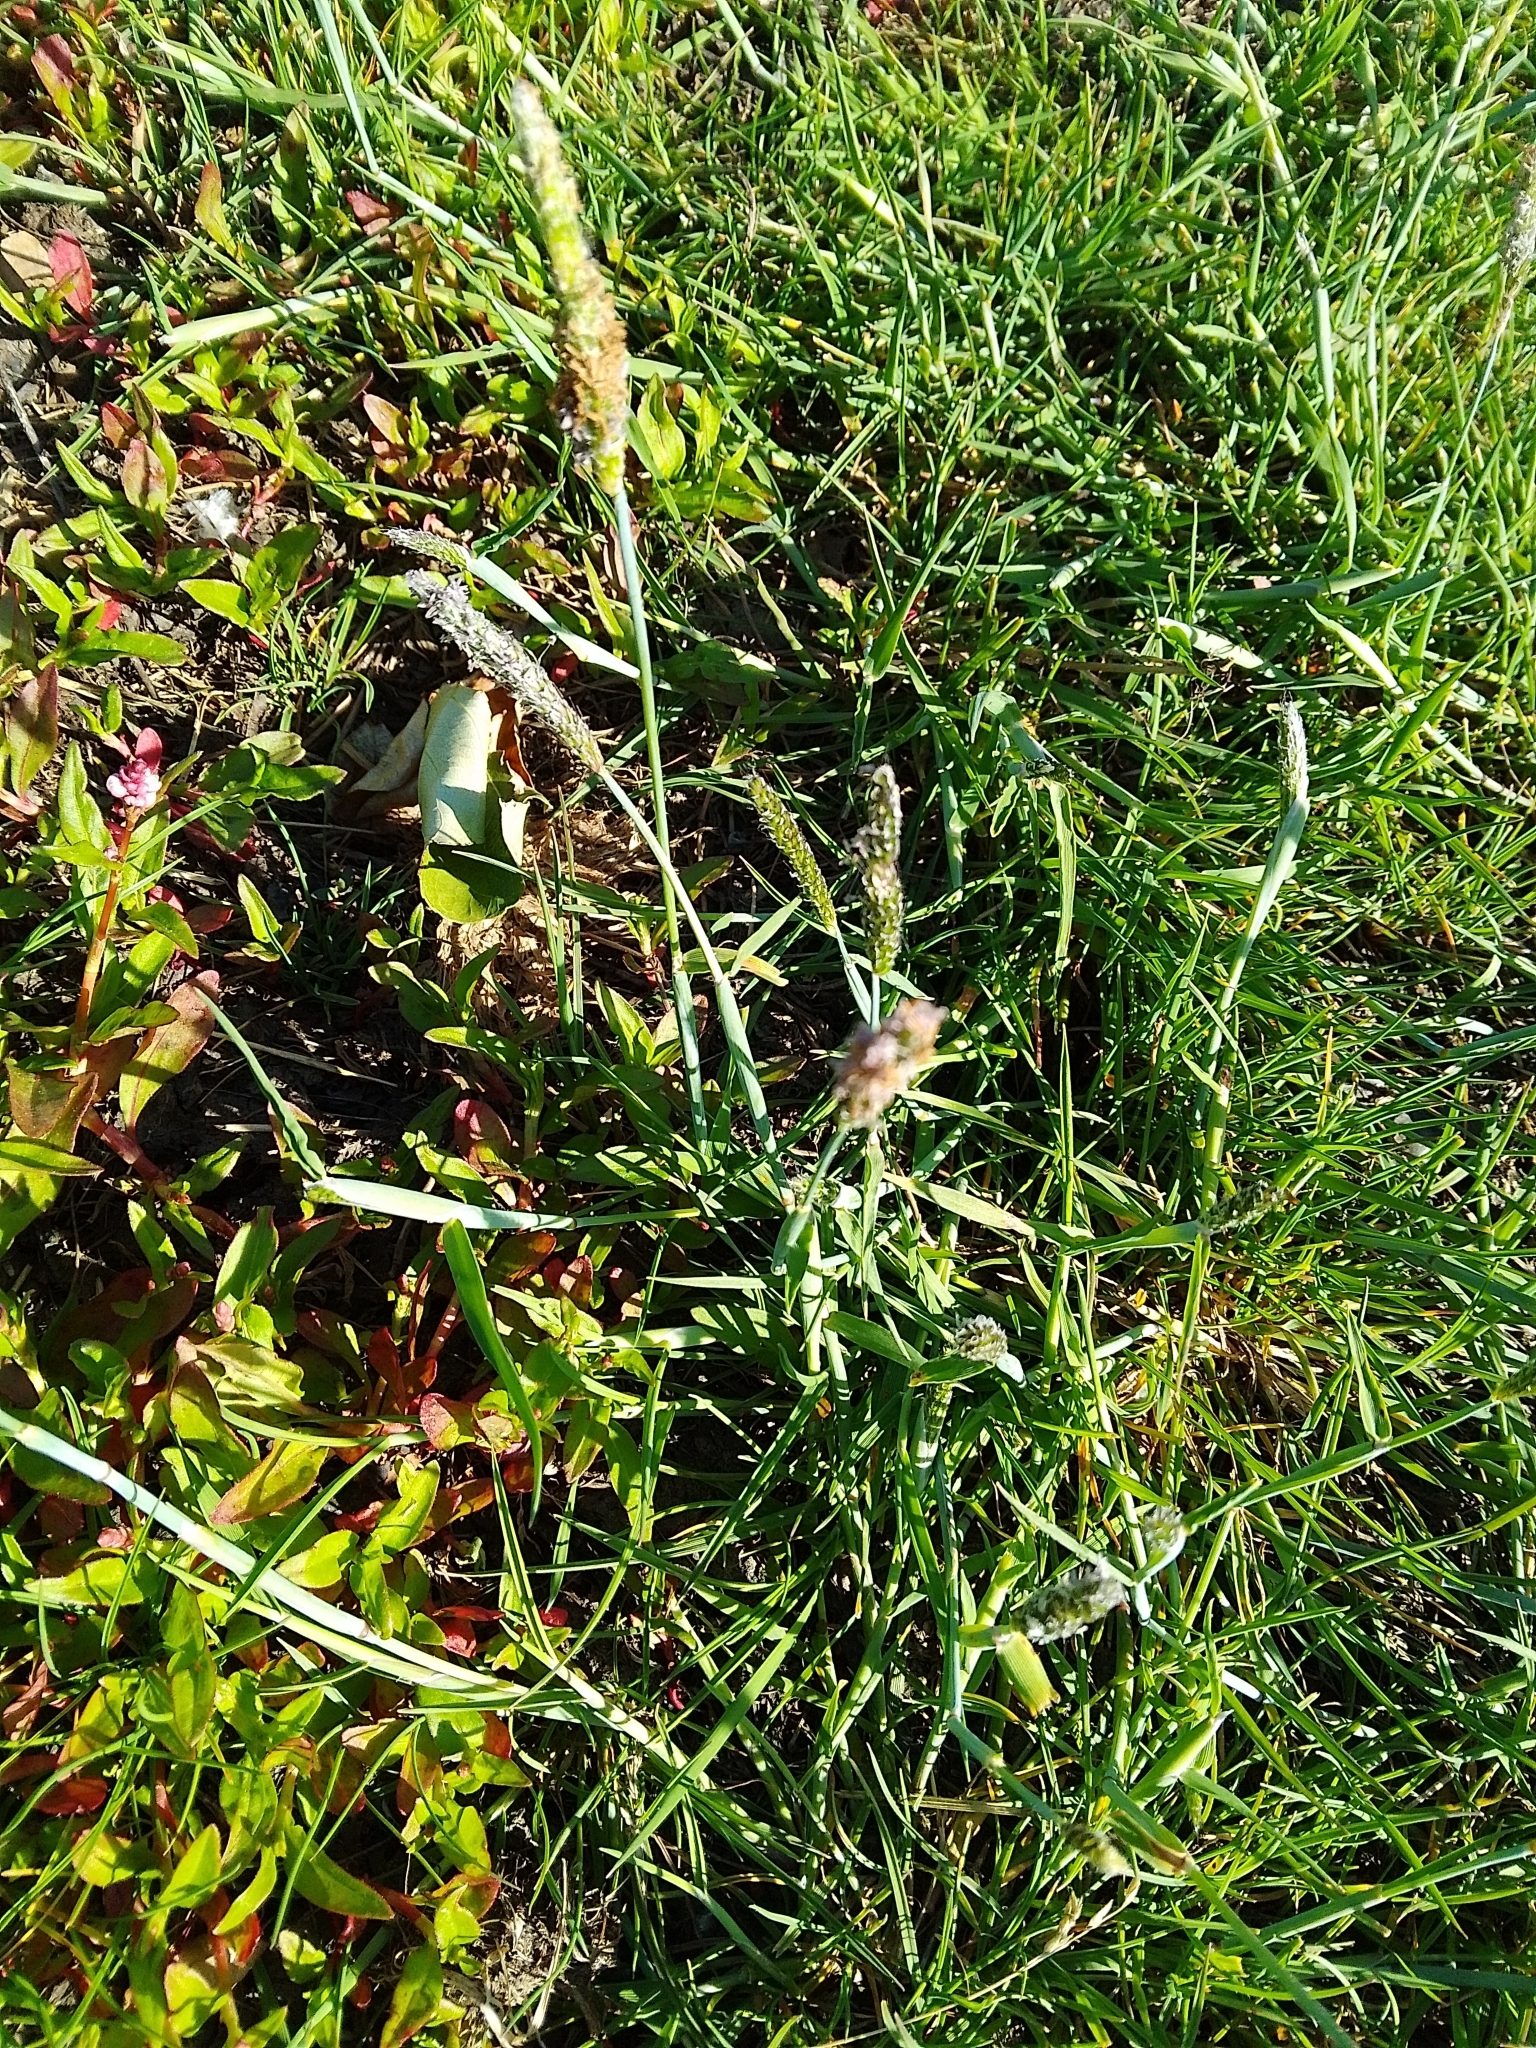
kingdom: Plantae
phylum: Tracheophyta
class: Liliopsida
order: Poales
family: Poaceae
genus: Alopecurus
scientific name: Alopecurus geniculatus
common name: Water foxtail
